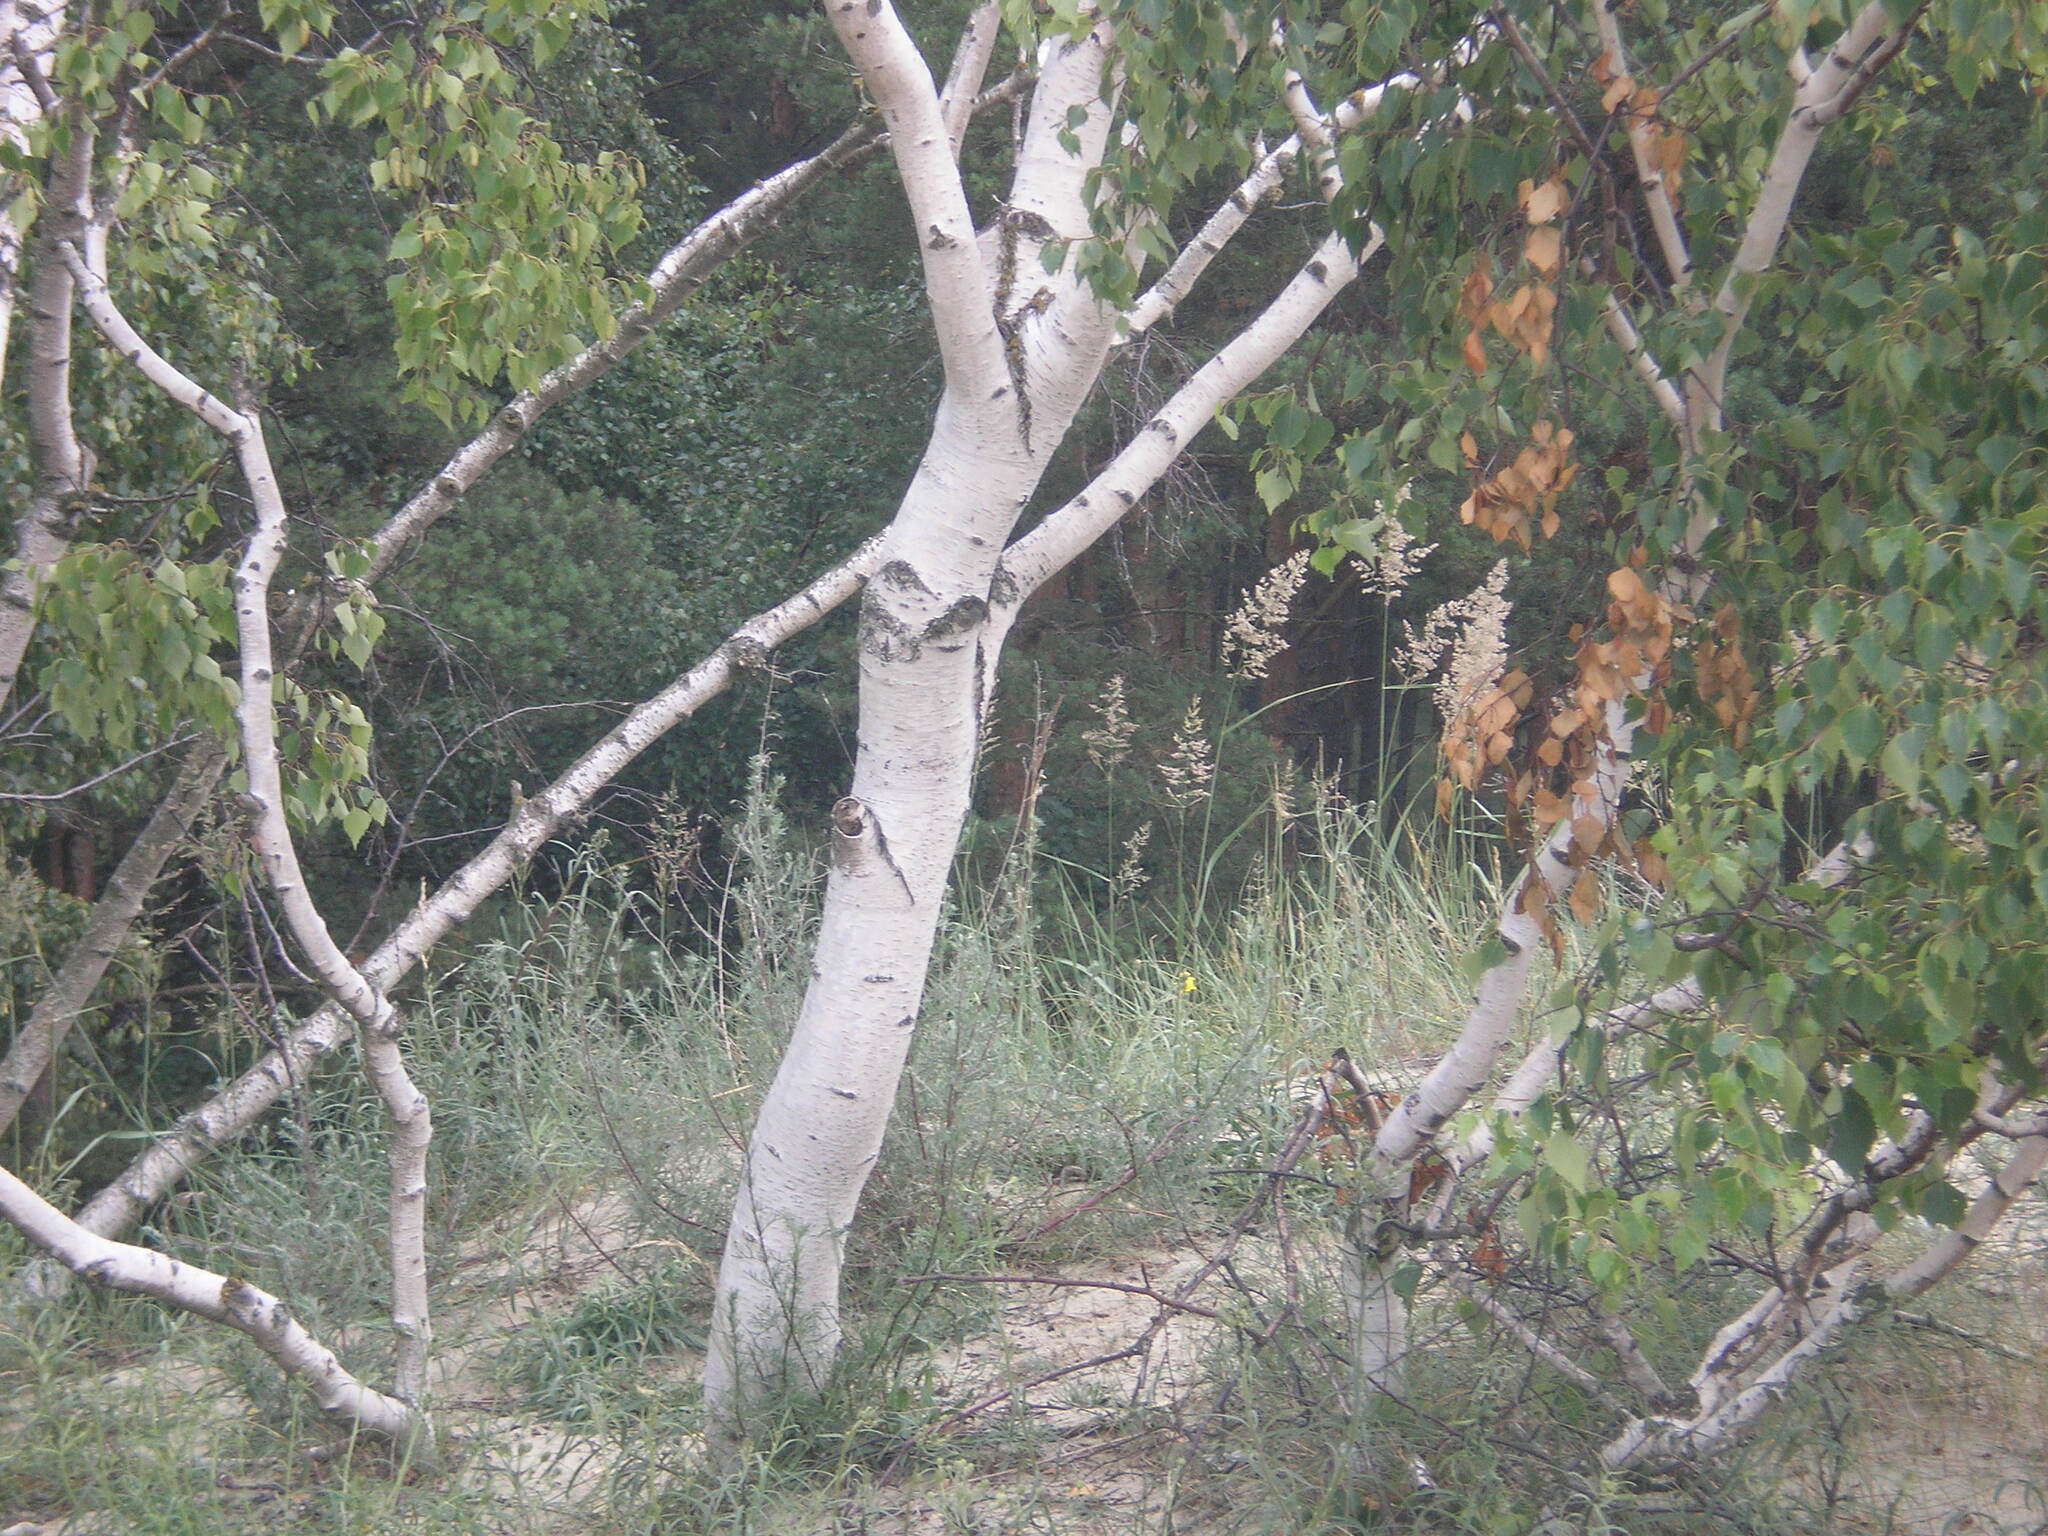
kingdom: Plantae
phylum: Tracheophyta
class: Magnoliopsida
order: Fagales
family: Betulaceae
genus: Betula
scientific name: Betula pendula
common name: Silver birch
